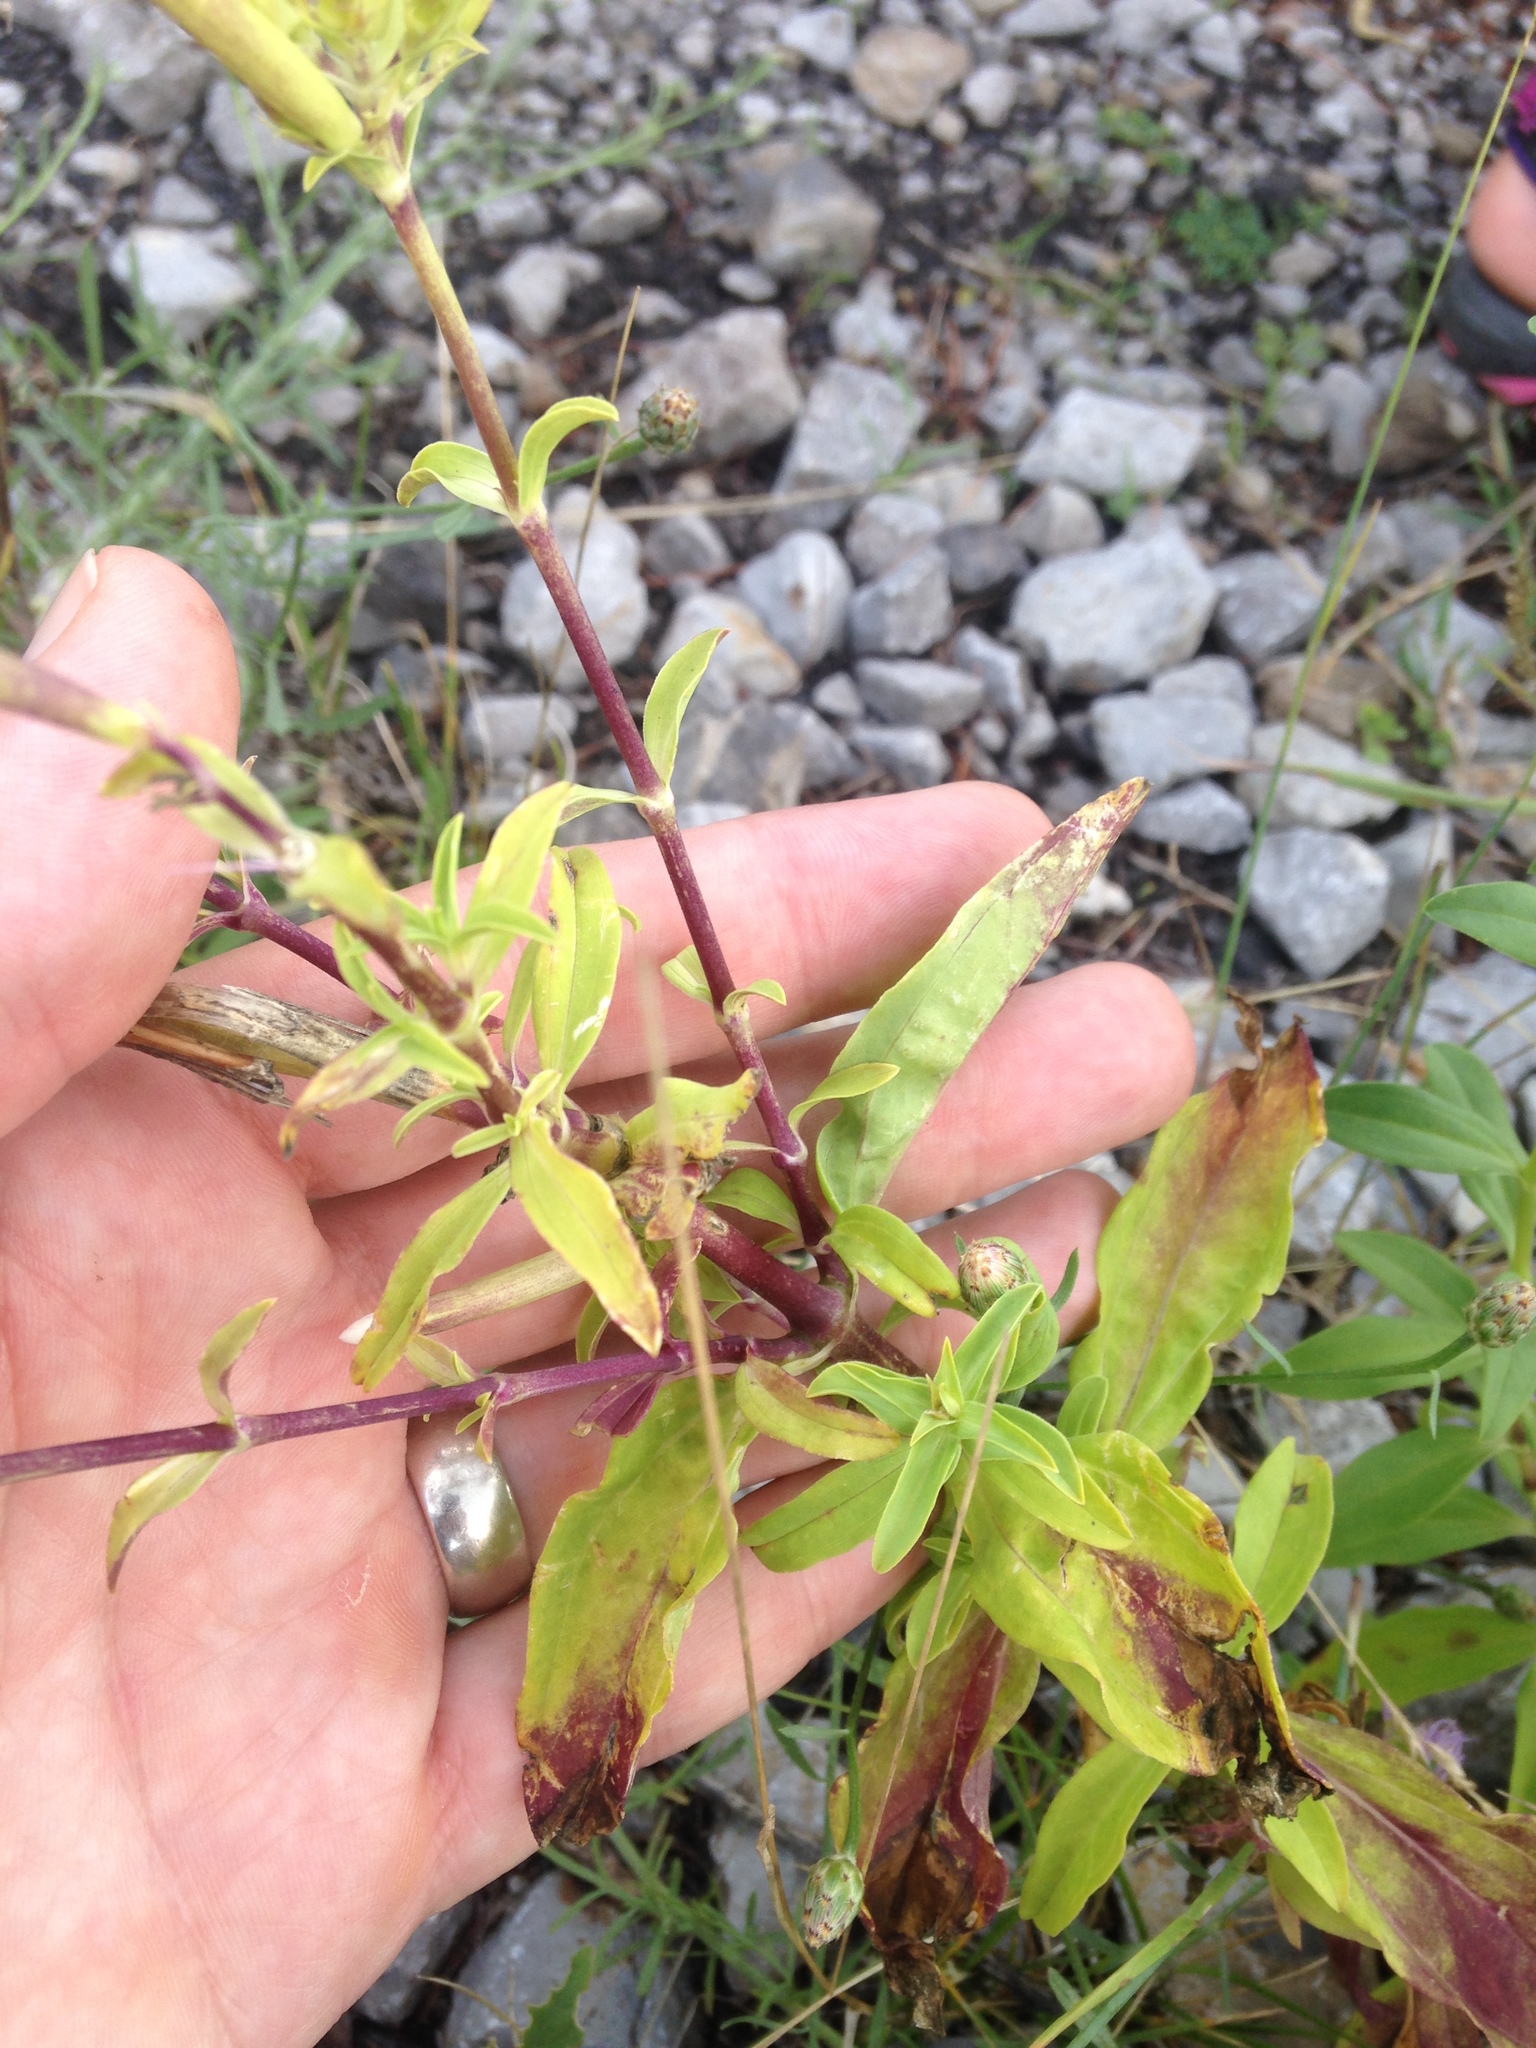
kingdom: Plantae
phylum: Tracheophyta
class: Magnoliopsida
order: Caryophyllales
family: Caryophyllaceae
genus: Saponaria
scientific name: Saponaria officinalis
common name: Soapwort
